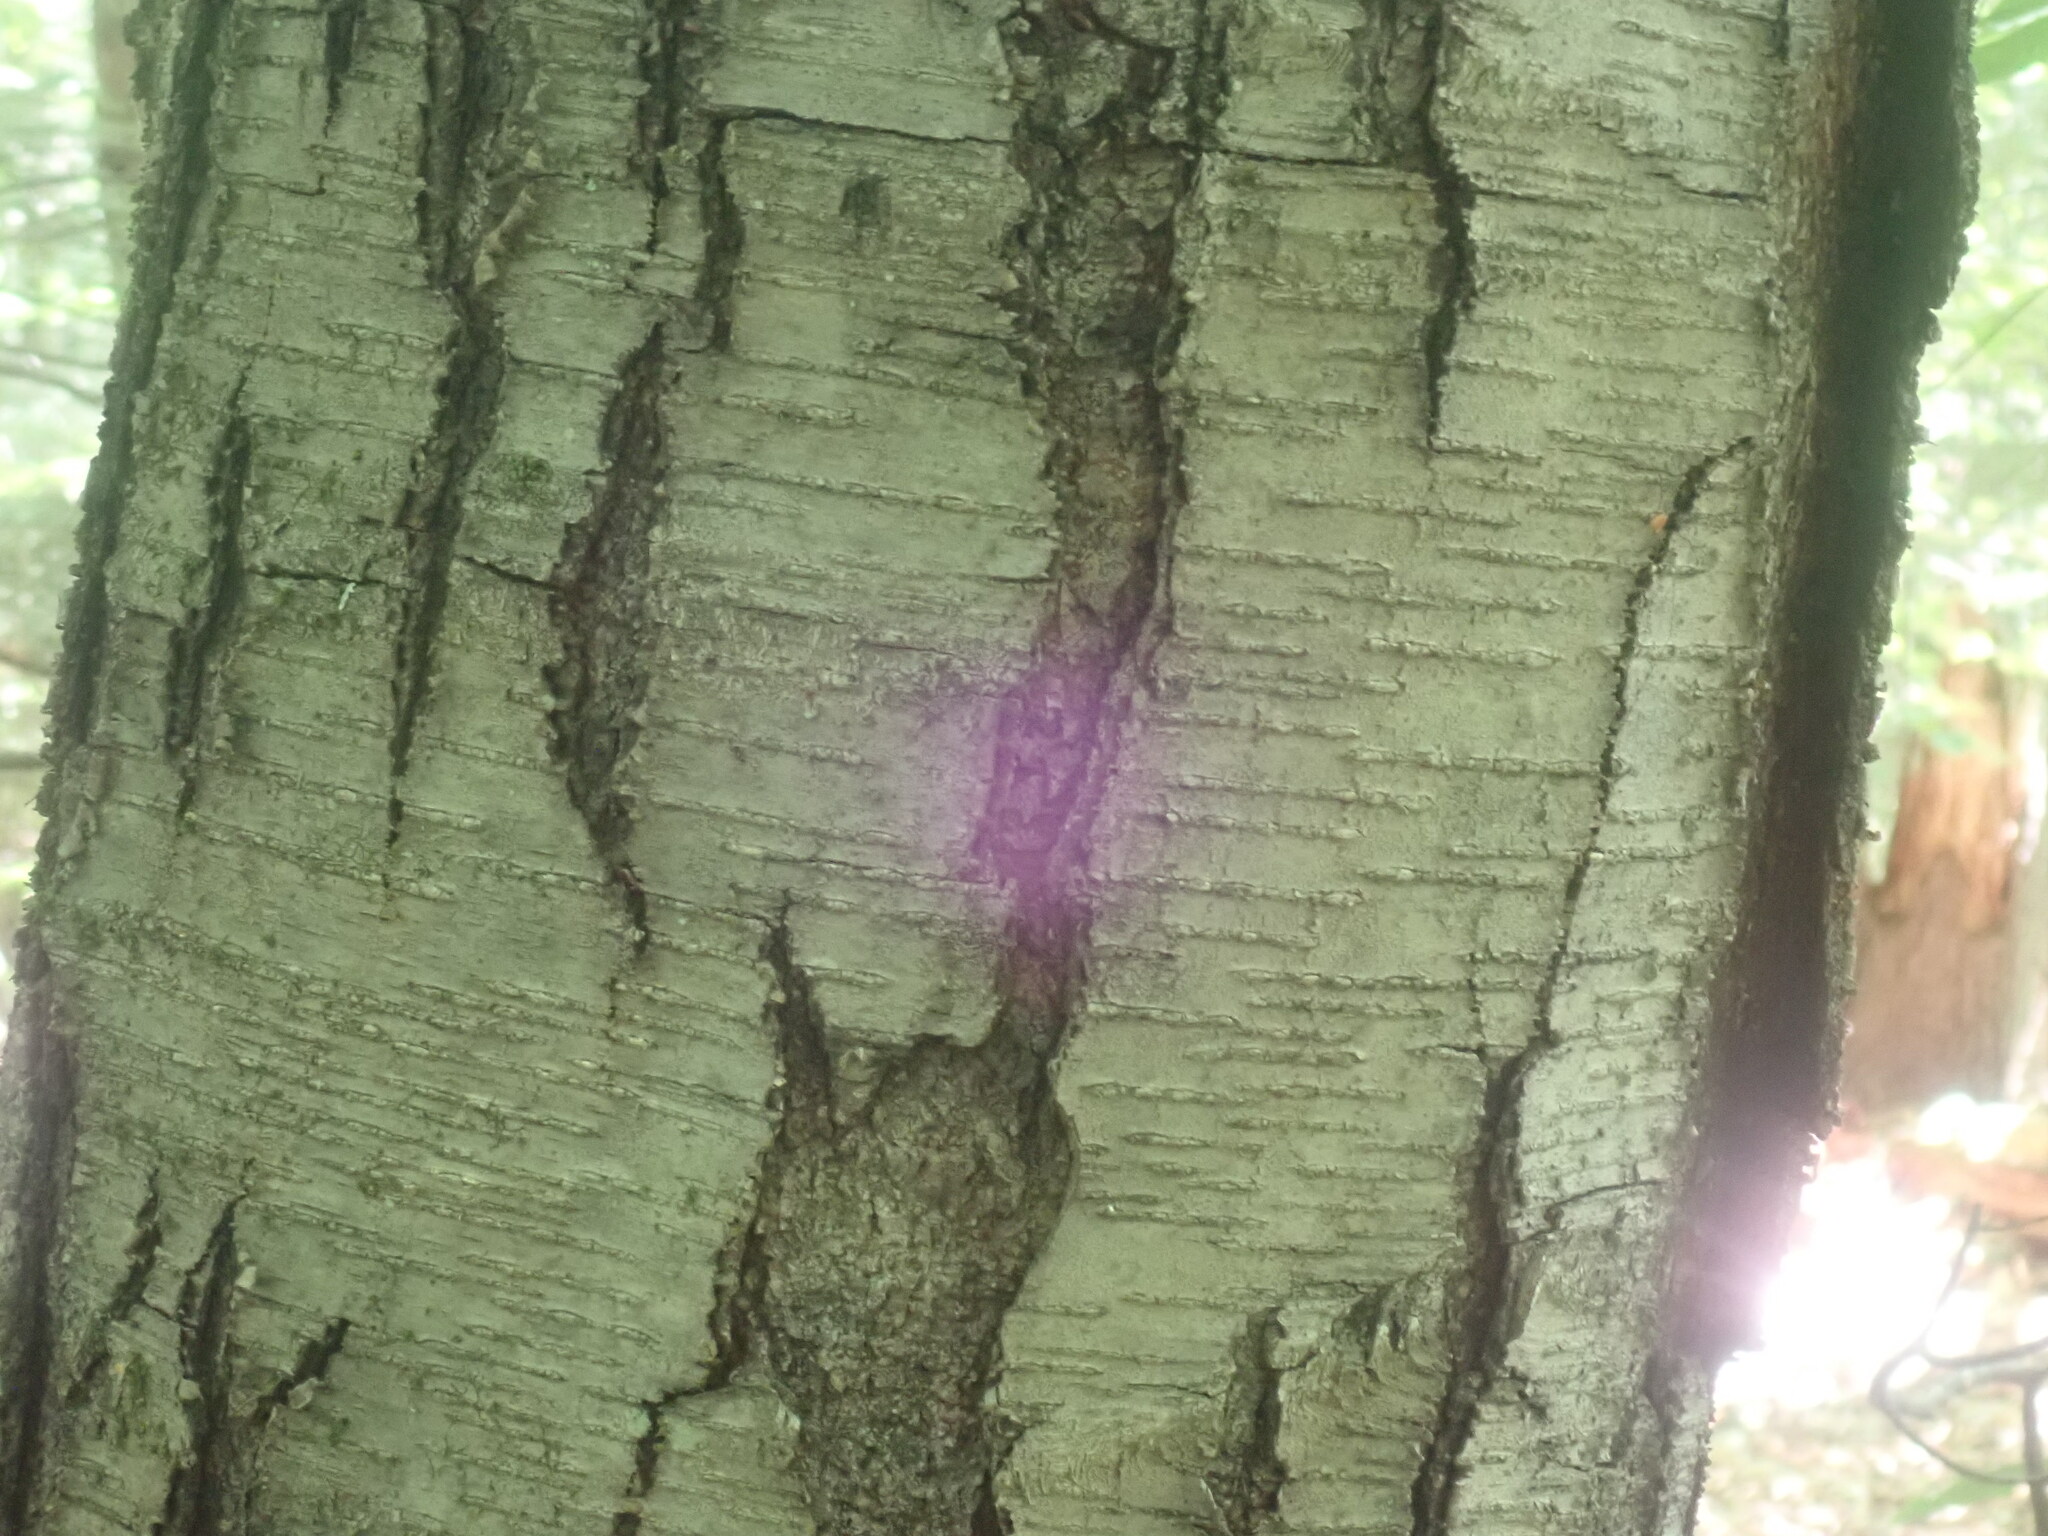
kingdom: Plantae
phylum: Tracheophyta
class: Magnoliopsida
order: Fagales
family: Betulaceae
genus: Betula
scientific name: Betula lenta
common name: Black birch
